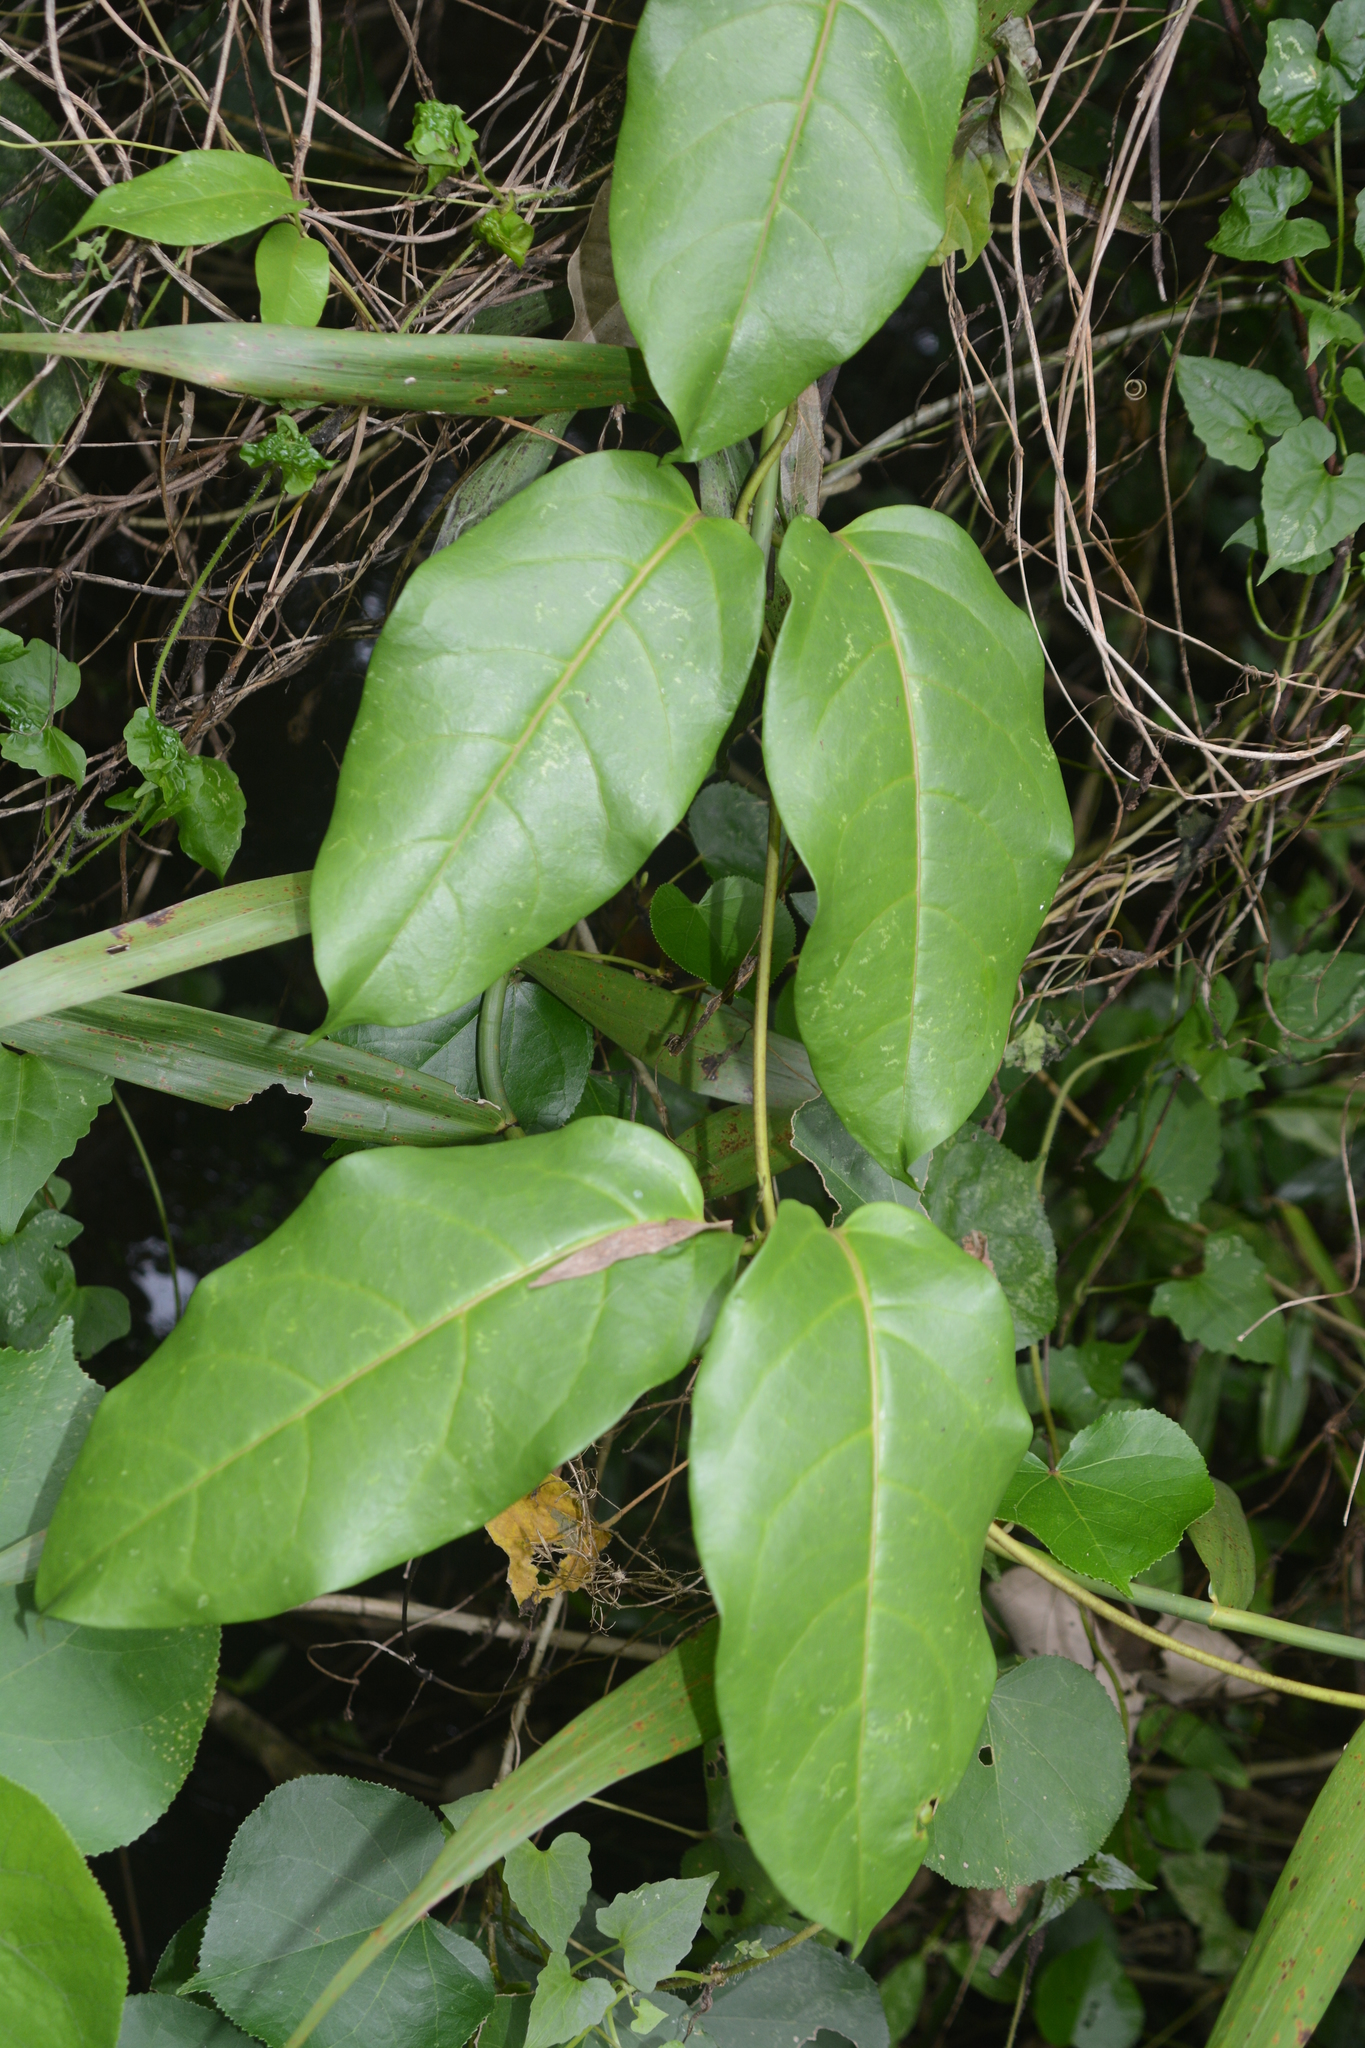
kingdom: Plantae
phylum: Tracheophyta
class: Magnoliopsida
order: Gentianales
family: Apocynaceae
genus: Parsonsia
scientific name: Parsonsia alboflavescens
